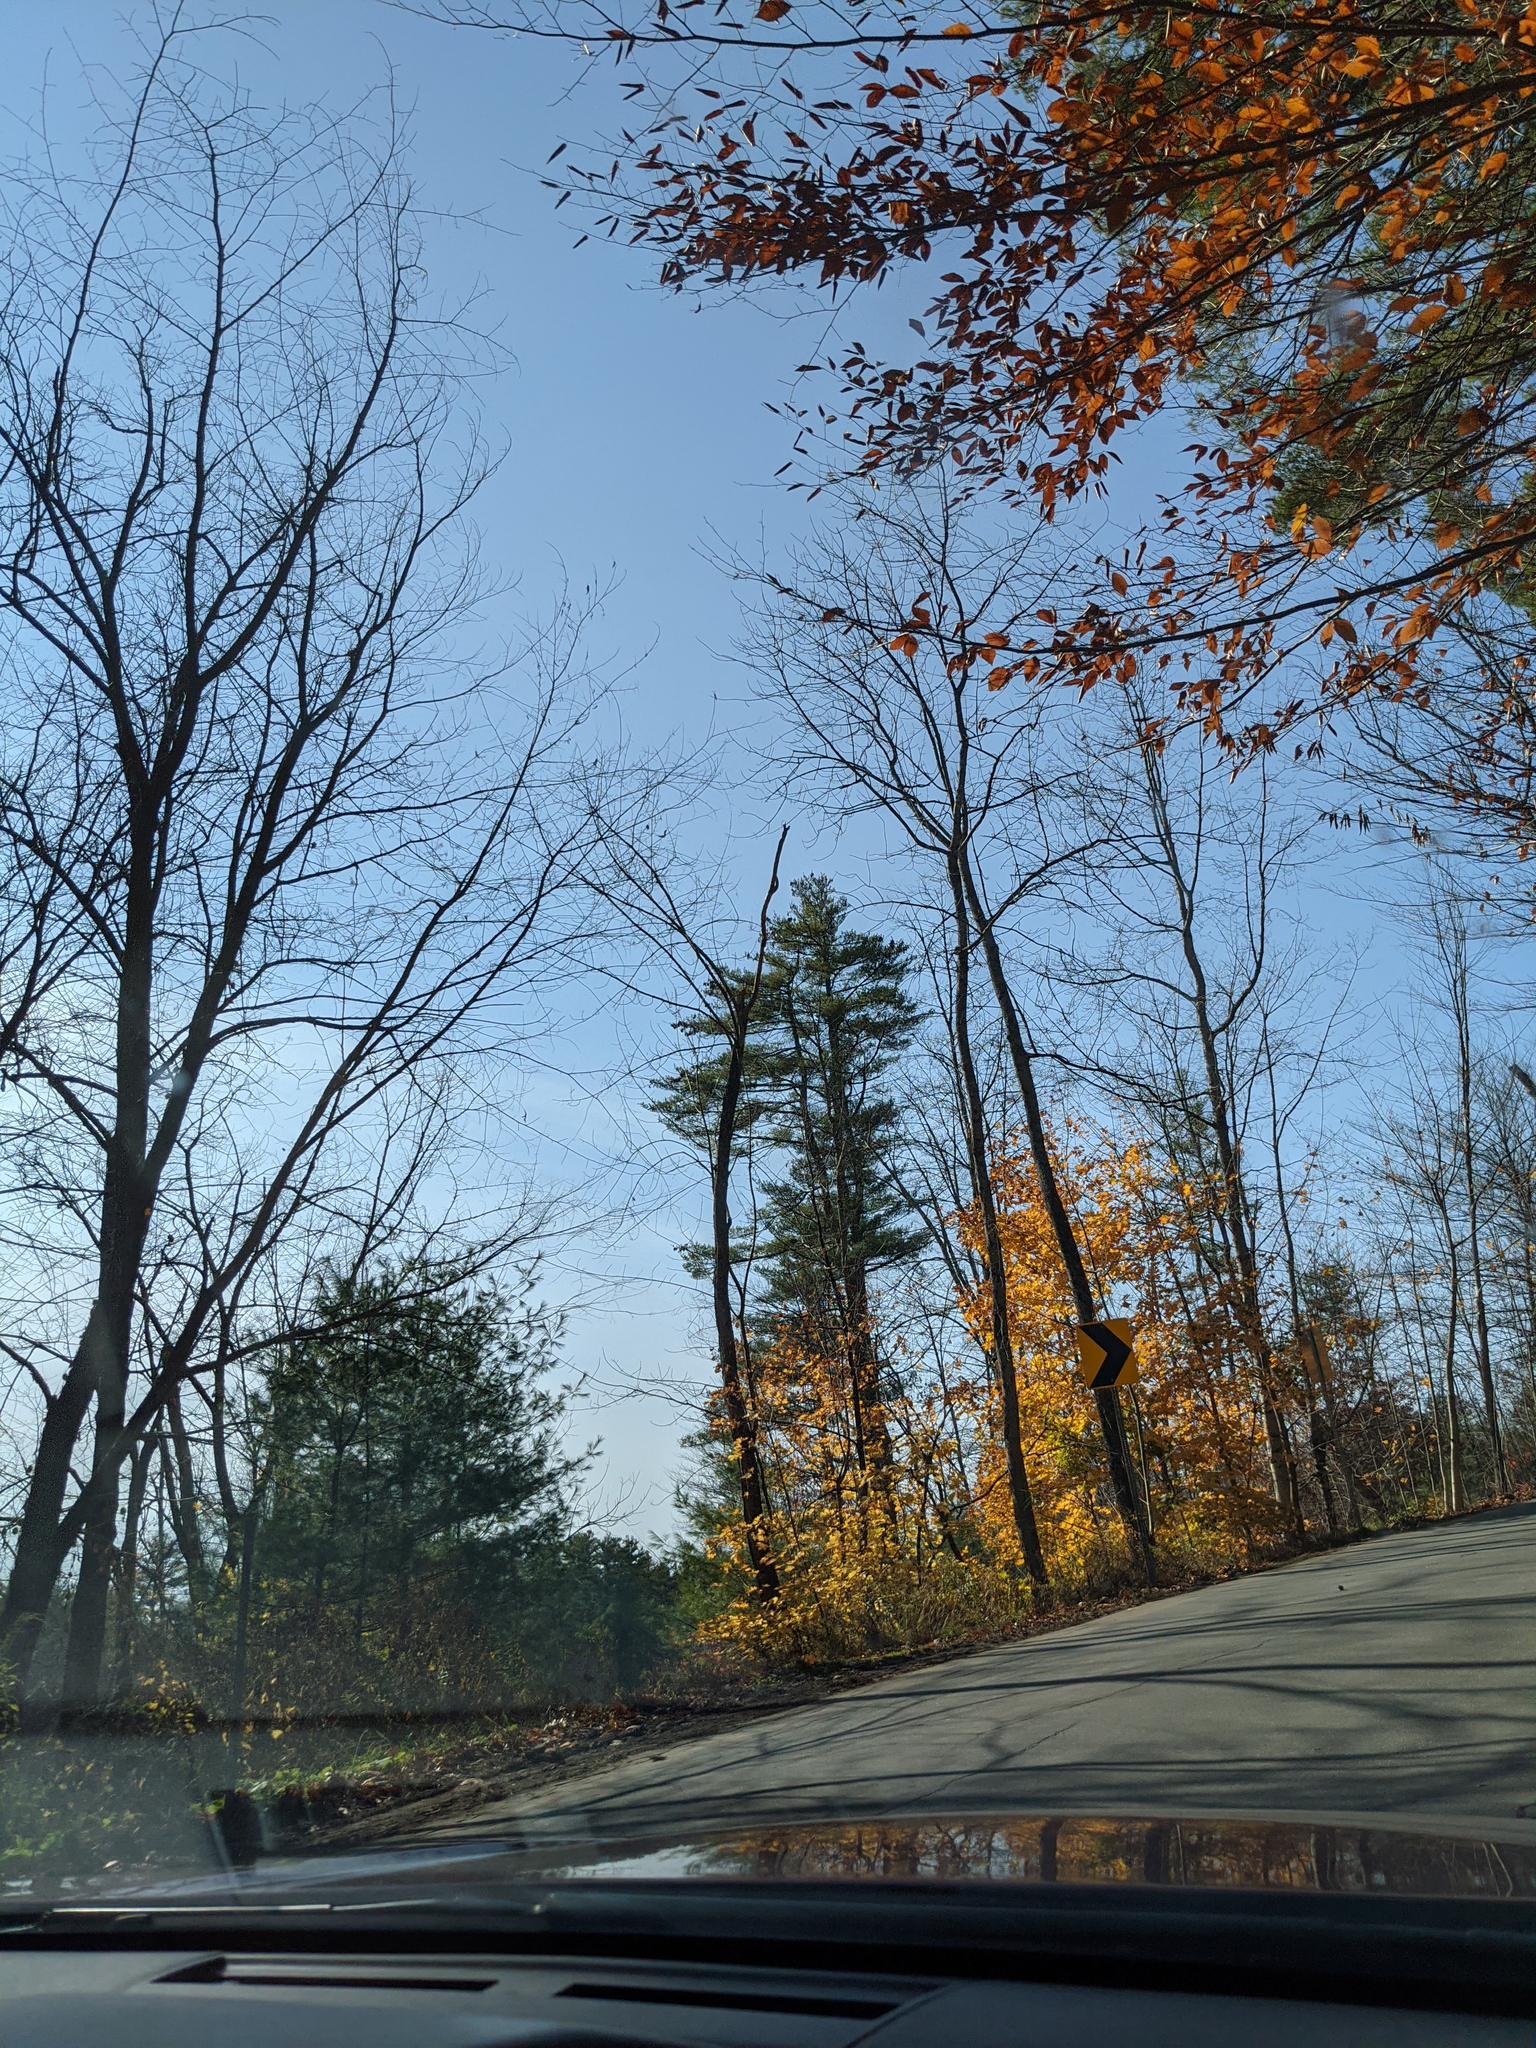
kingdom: Plantae
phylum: Tracheophyta
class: Pinopsida
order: Pinales
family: Pinaceae
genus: Pinus
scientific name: Pinus strobus
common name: Weymouth pine
